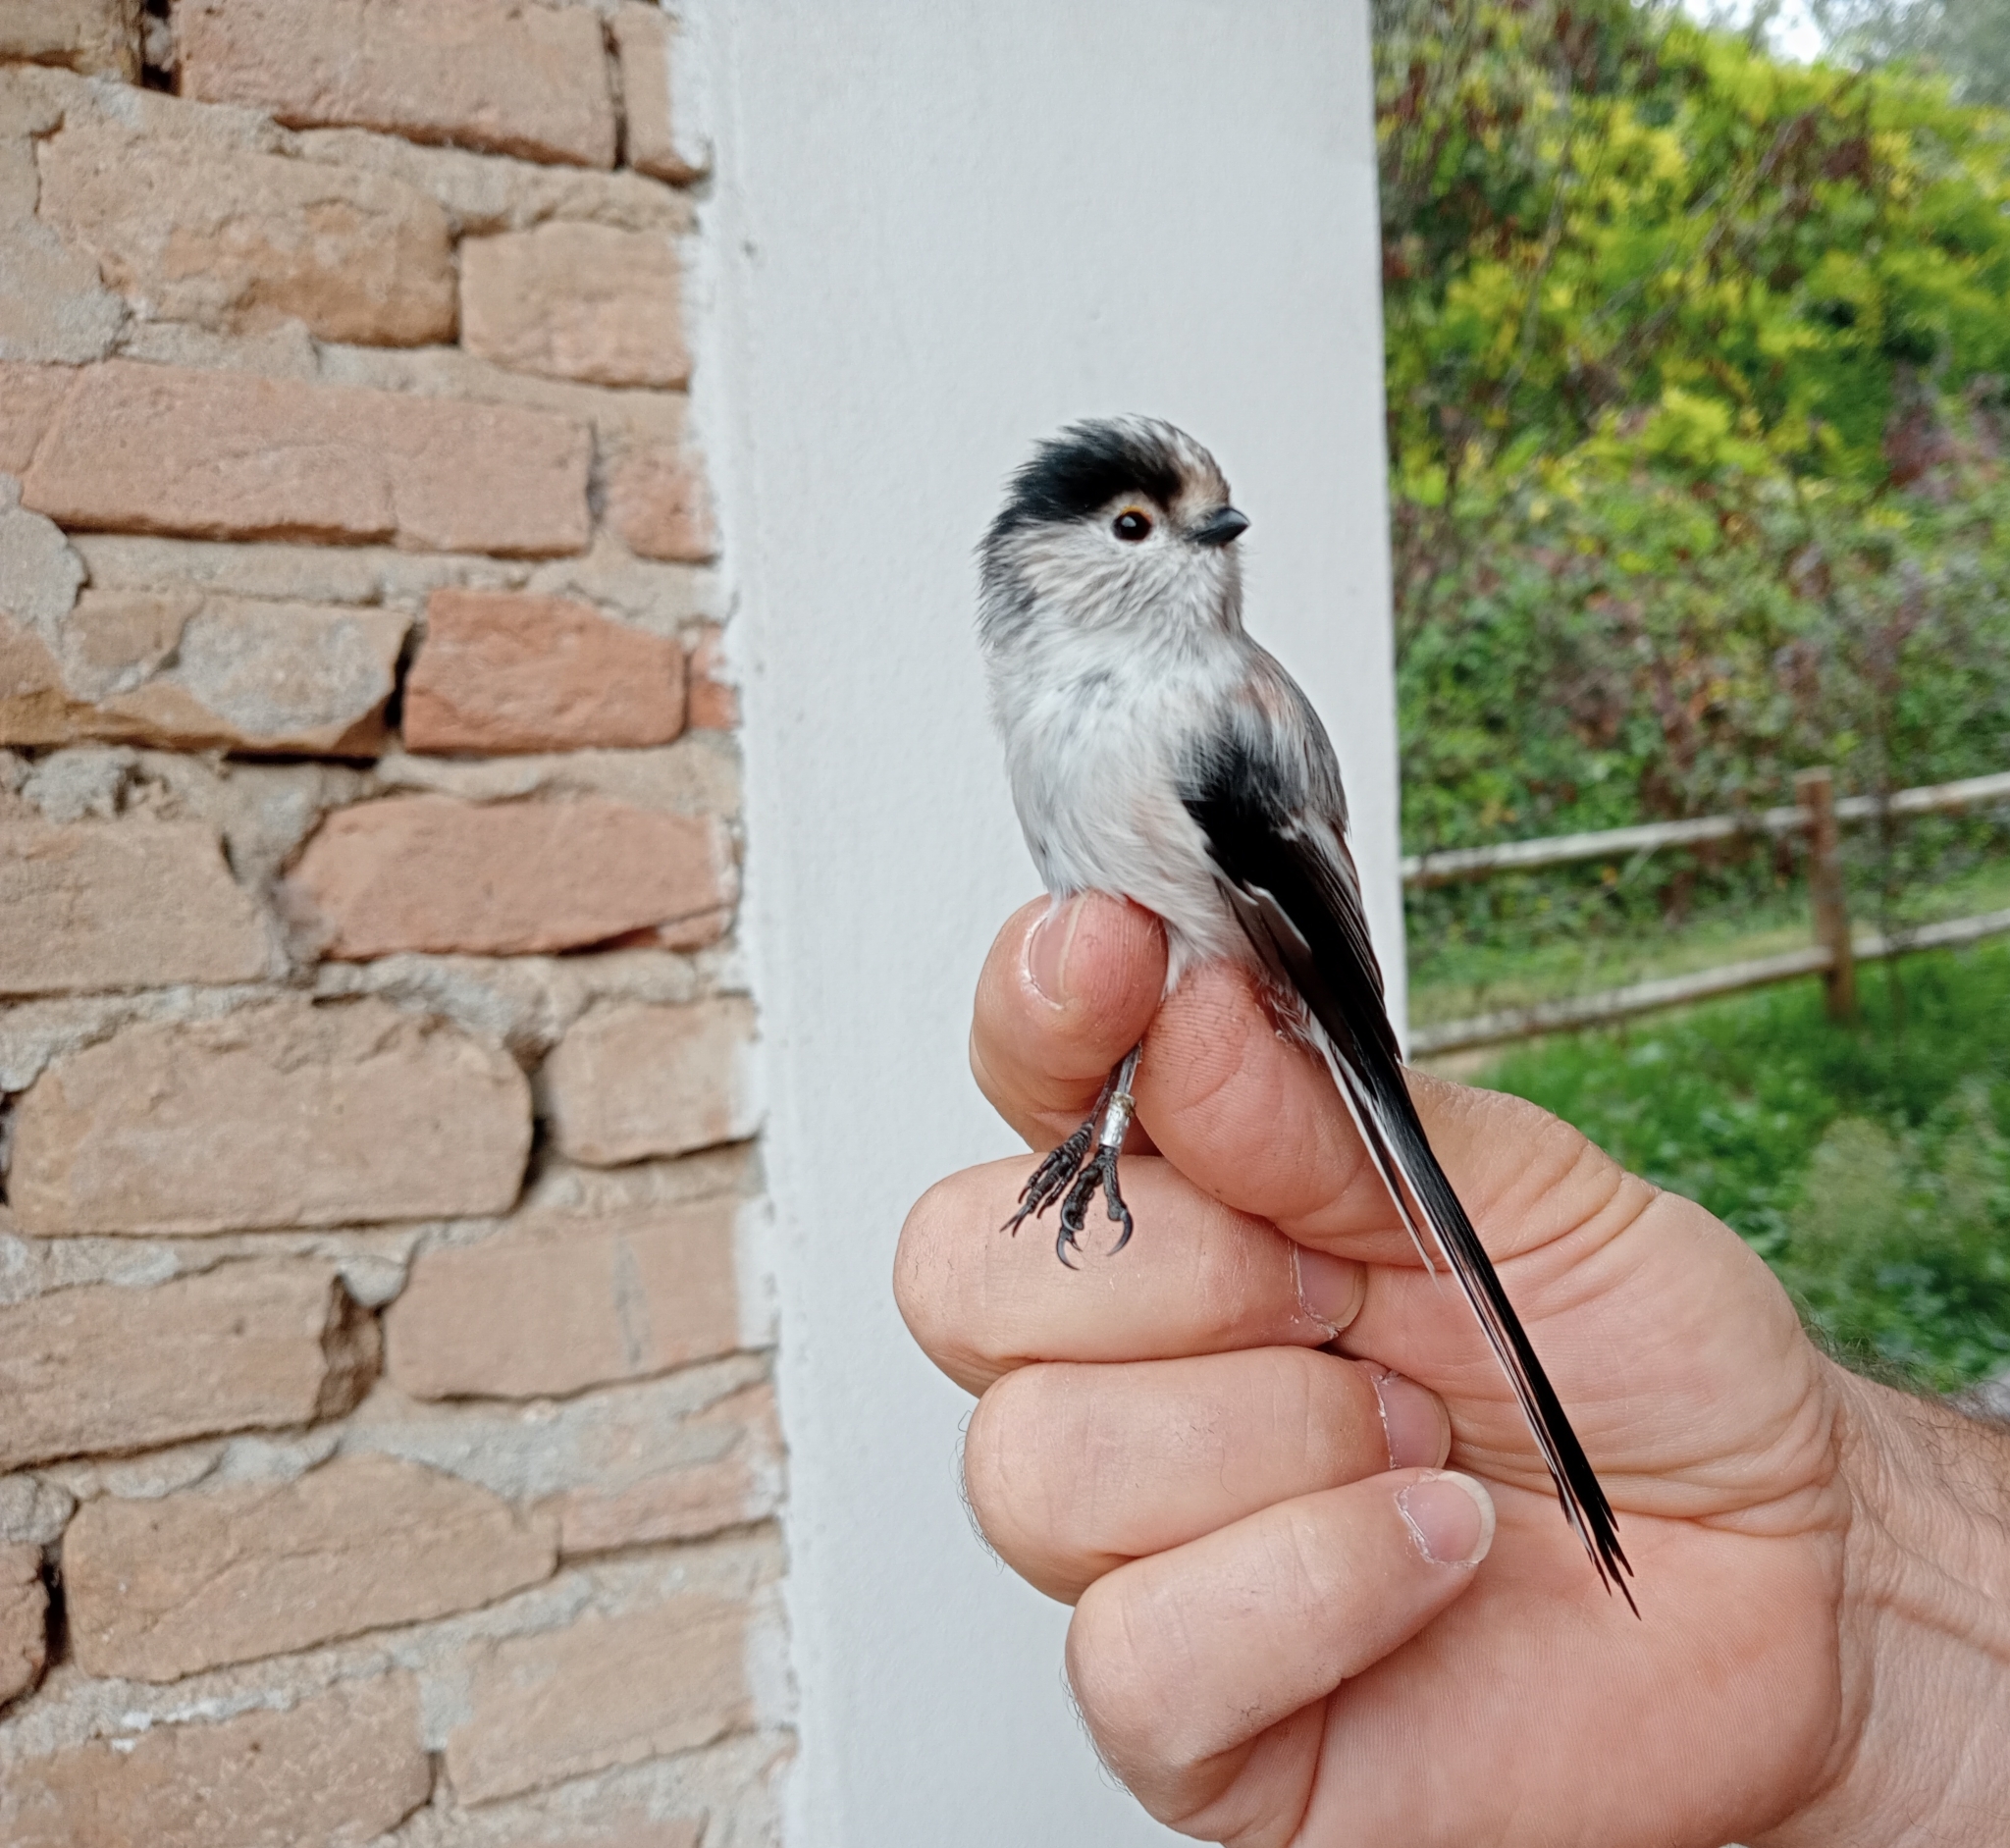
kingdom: Animalia
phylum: Chordata
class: Aves
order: Passeriformes
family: Aegithalidae
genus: Aegithalos
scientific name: Aegithalos caudatus
